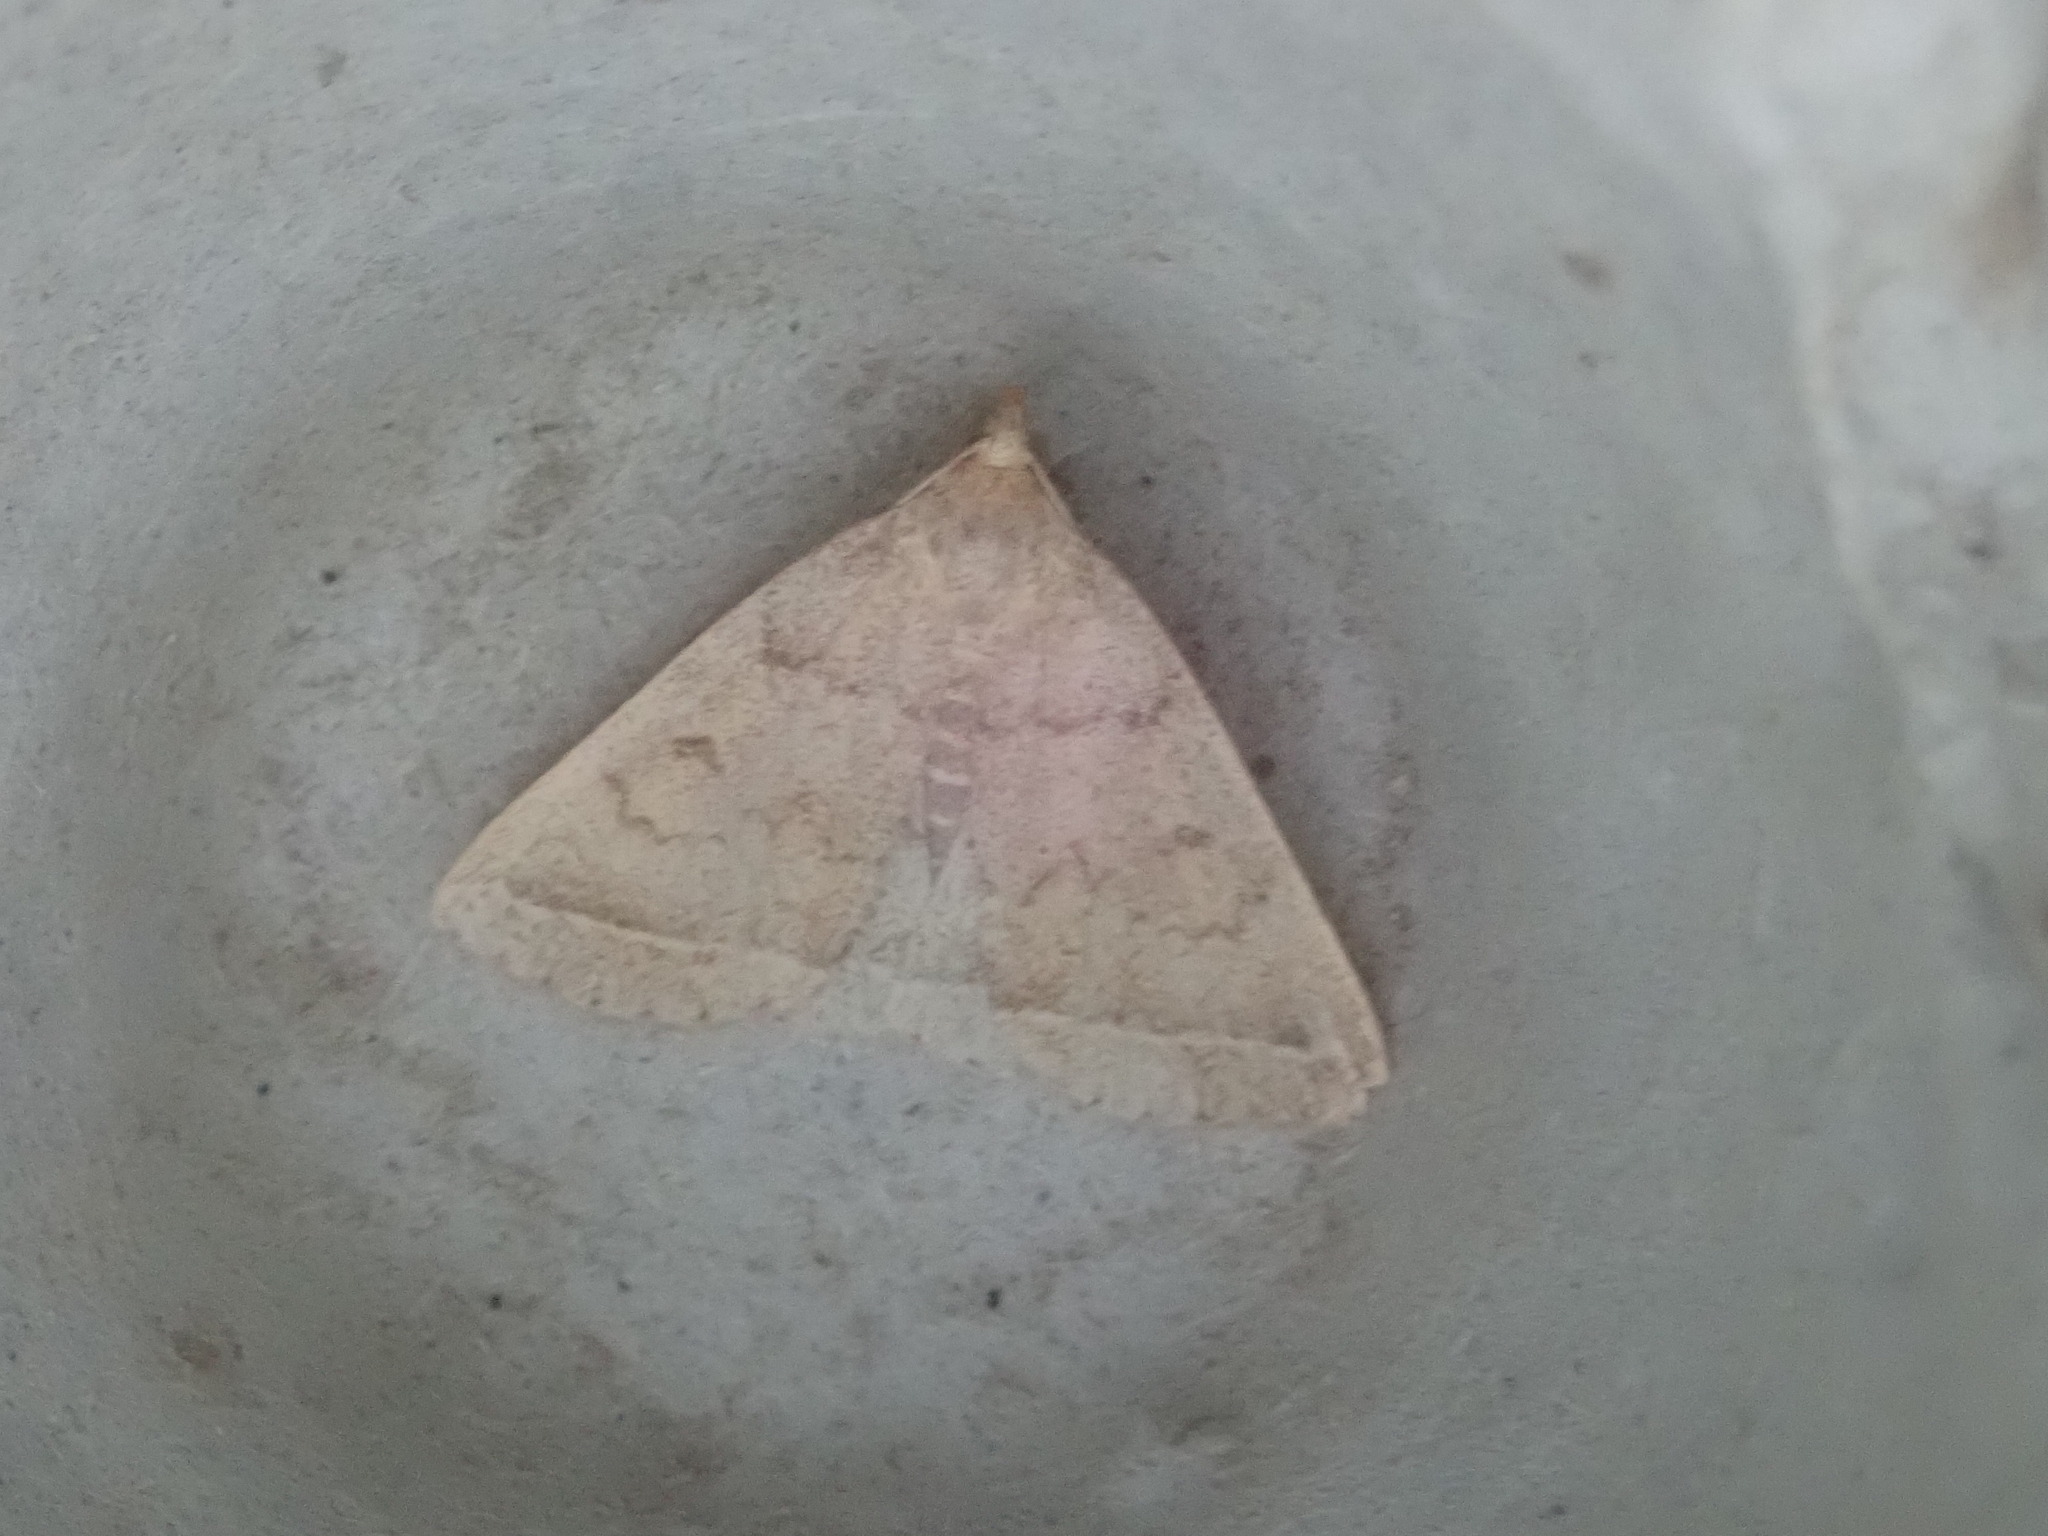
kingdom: Animalia
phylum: Arthropoda
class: Insecta
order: Lepidoptera
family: Erebidae
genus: Zanclognatha
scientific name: Zanclognatha jacchusalis
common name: Yellowish zanclognatha
